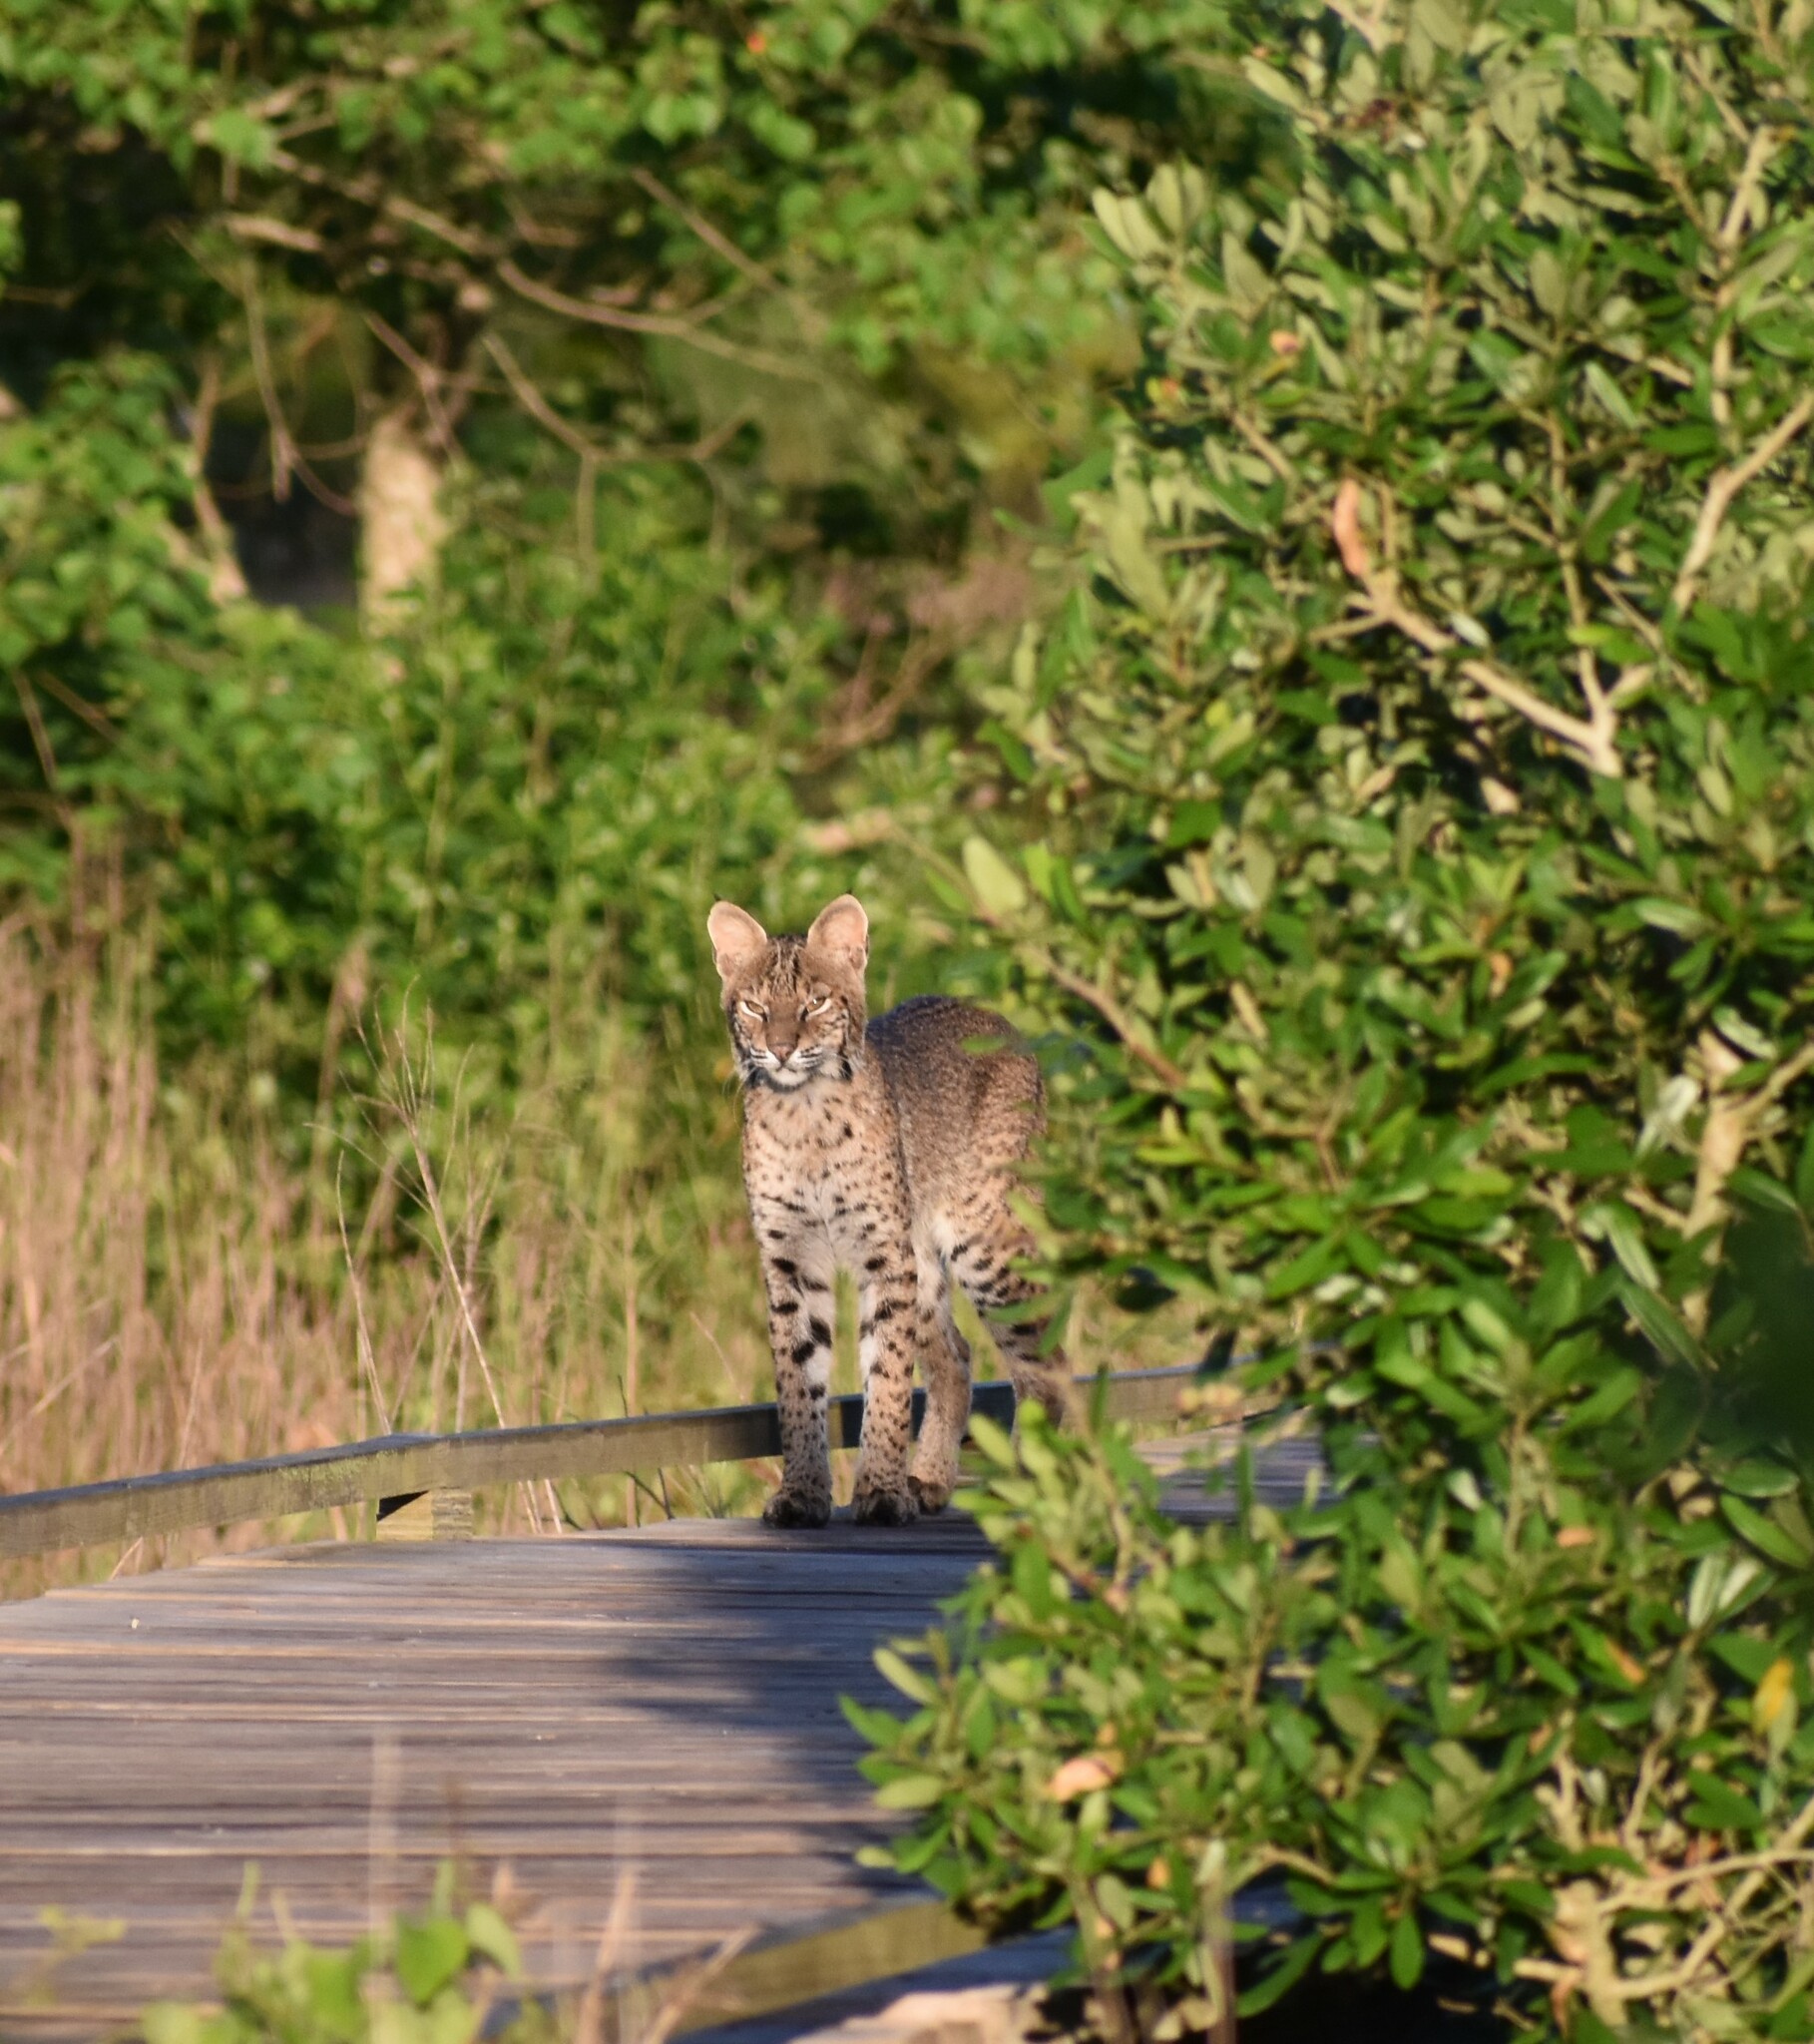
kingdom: Animalia
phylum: Chordata
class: Mammalia
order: Carnivora
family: Felidae
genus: Lynx
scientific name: Lynx rufus
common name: Bobcat
